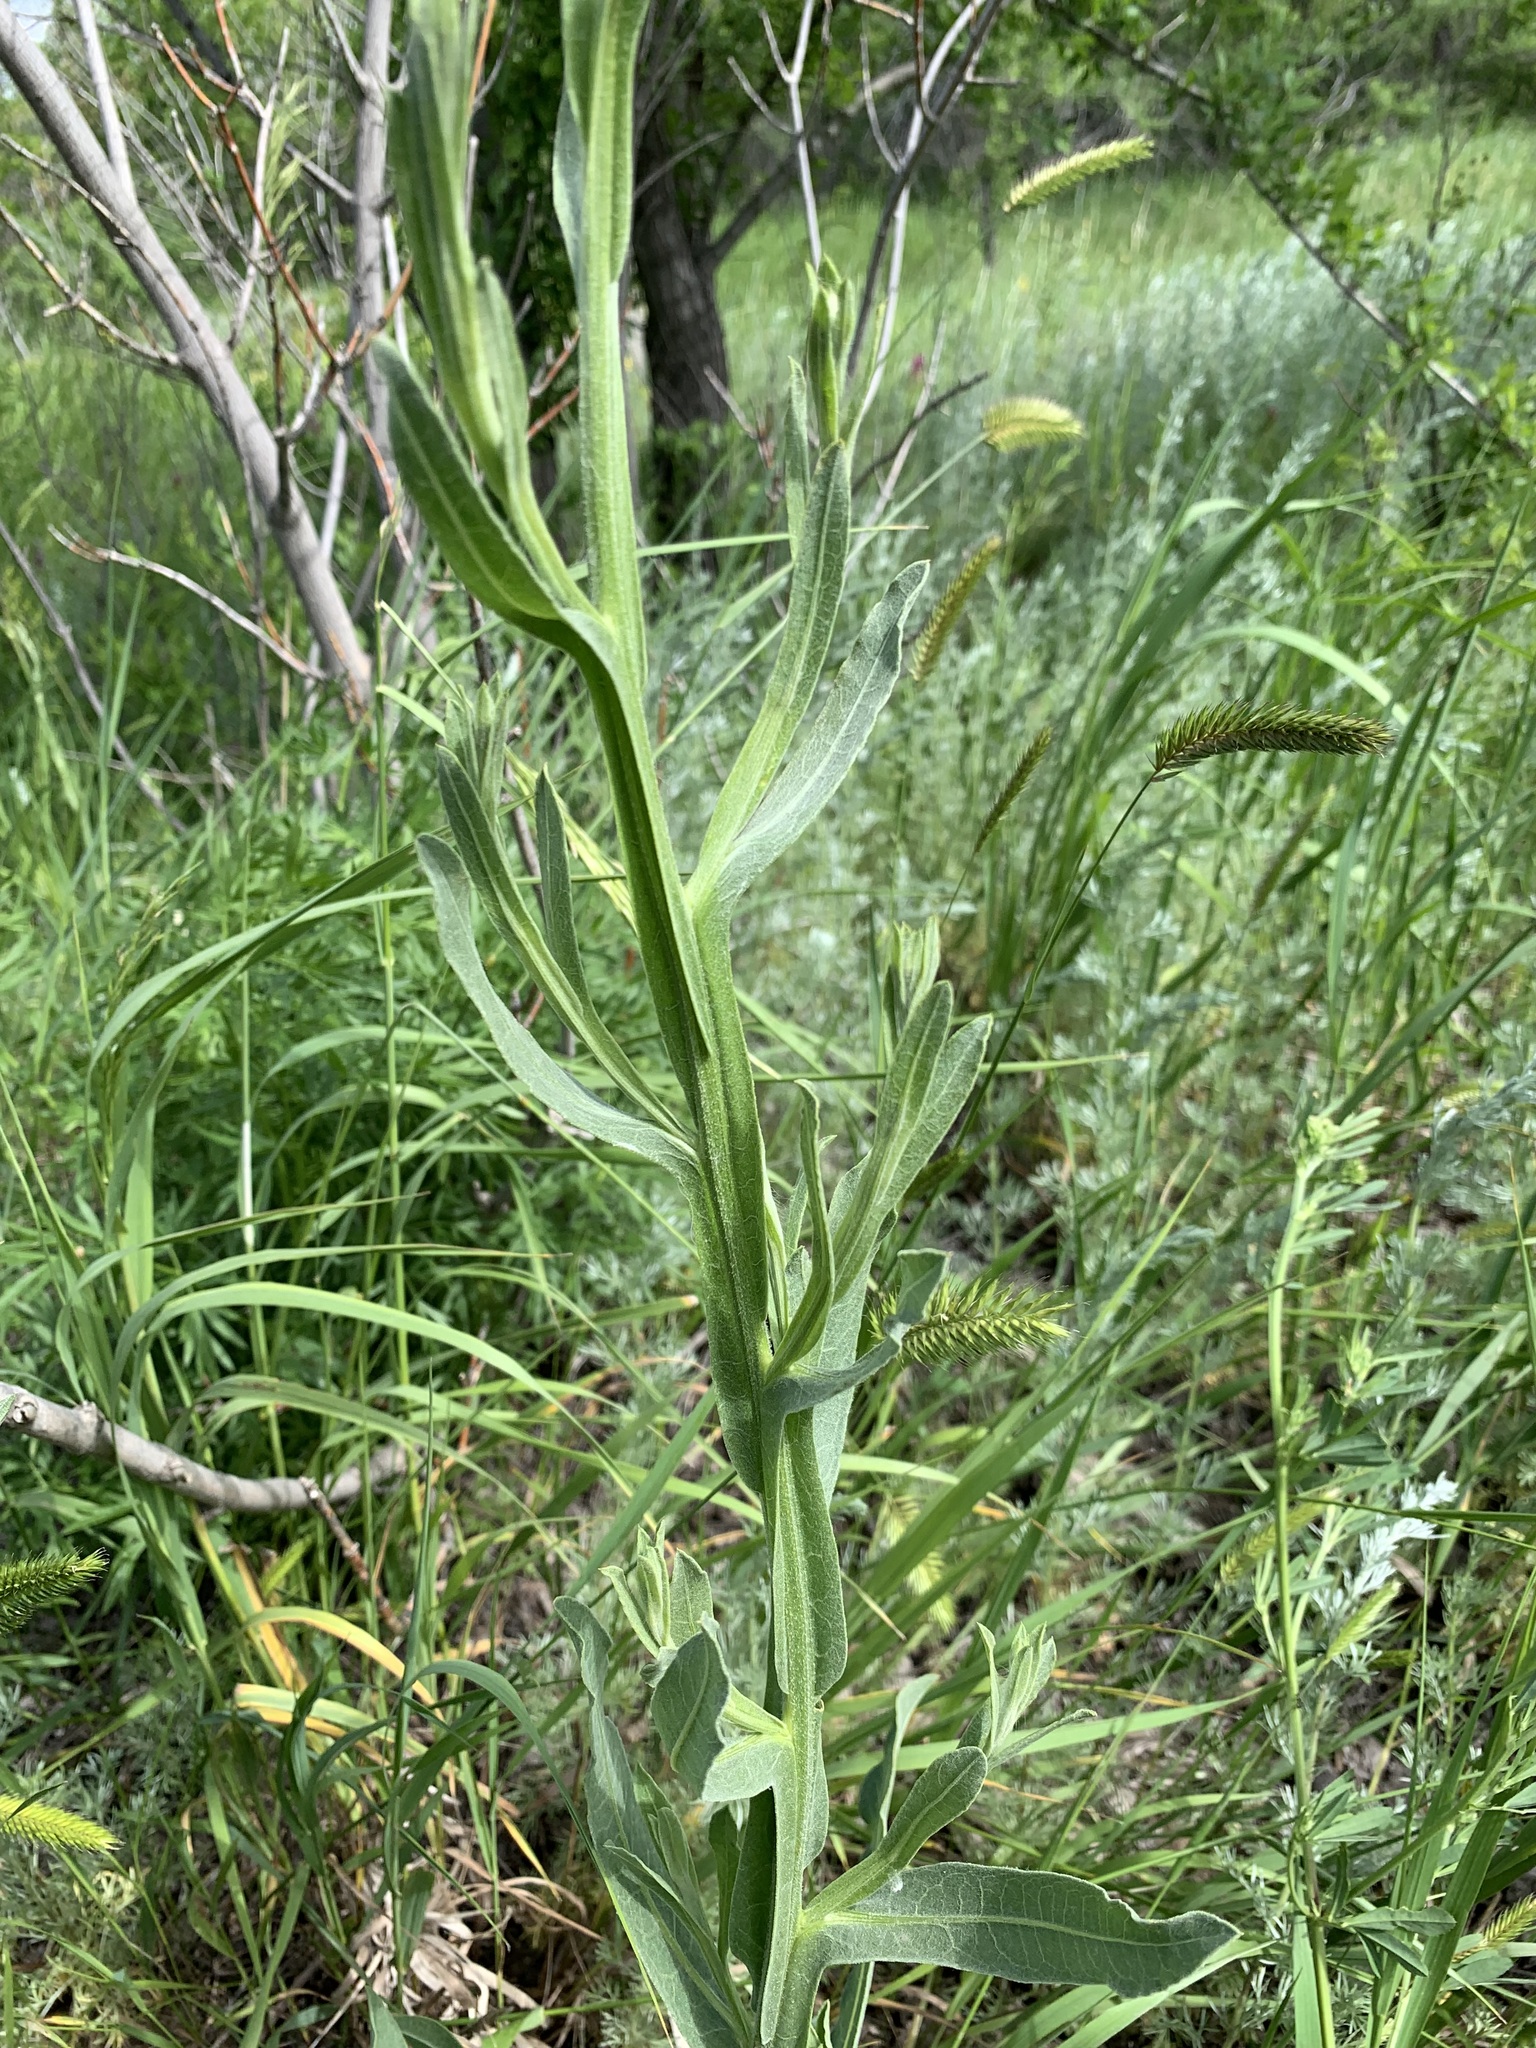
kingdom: Plantae
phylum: Tracheophyta
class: Magnoliopsida
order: Asterales
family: Asteraceae
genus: Centaurea
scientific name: Centaurea glastifolia
